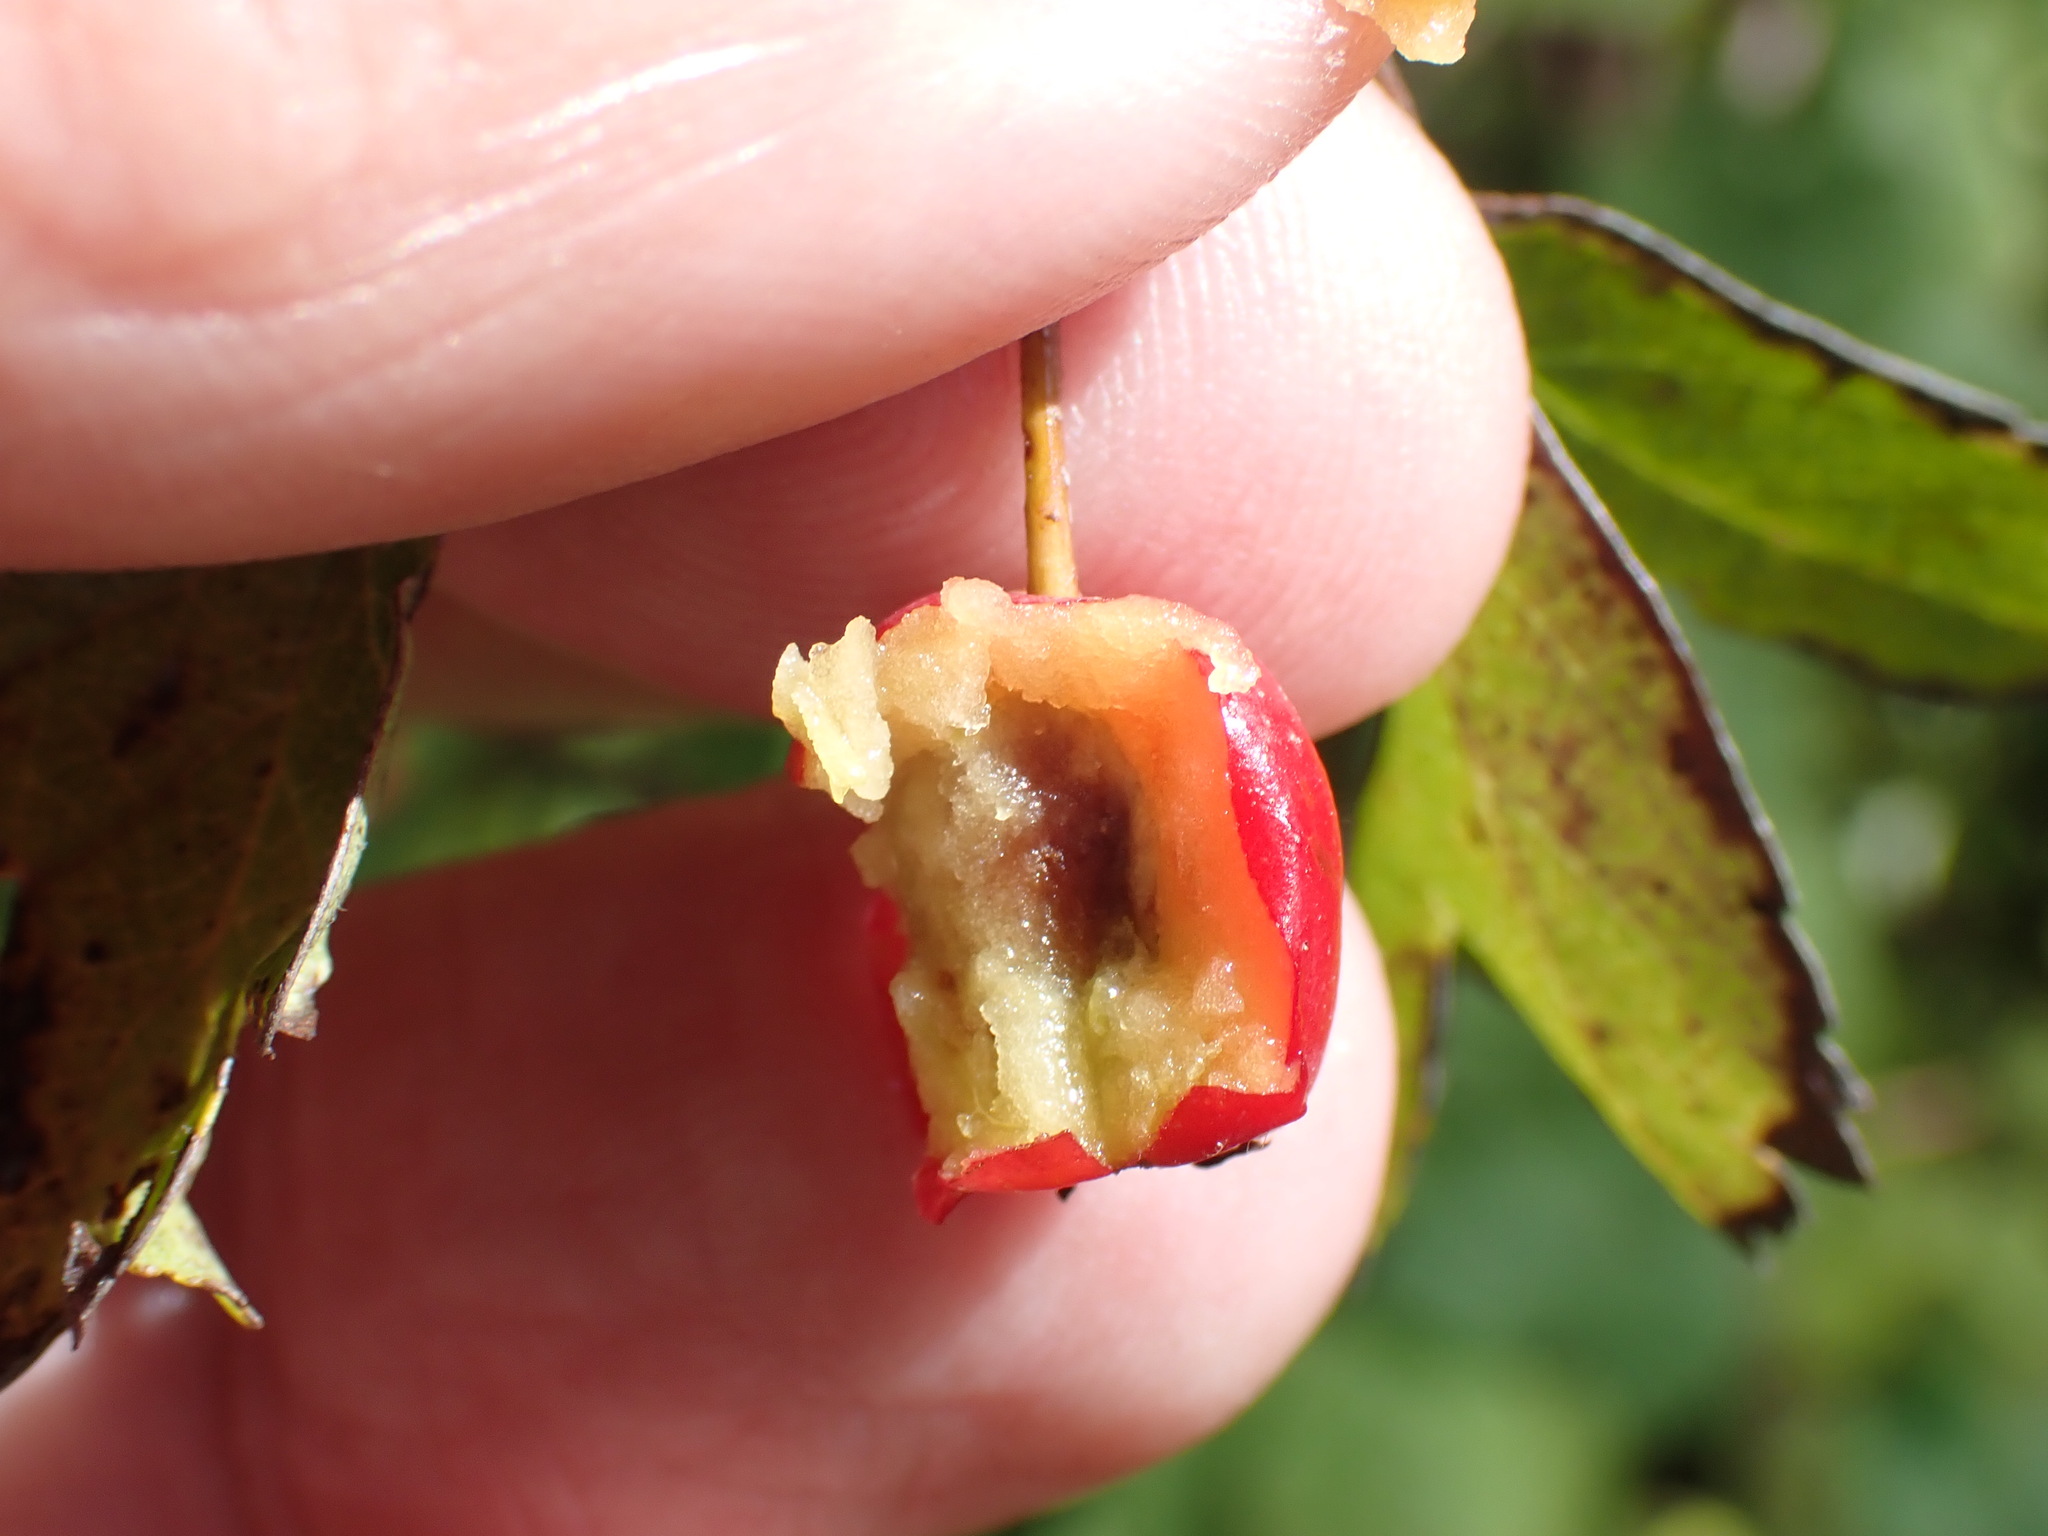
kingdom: Plantae
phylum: Tracheophyta
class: Magnoliopsida
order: Rosales
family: Rosaceae
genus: Crataegus
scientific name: Crataegus monogyna
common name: Hawthorn
